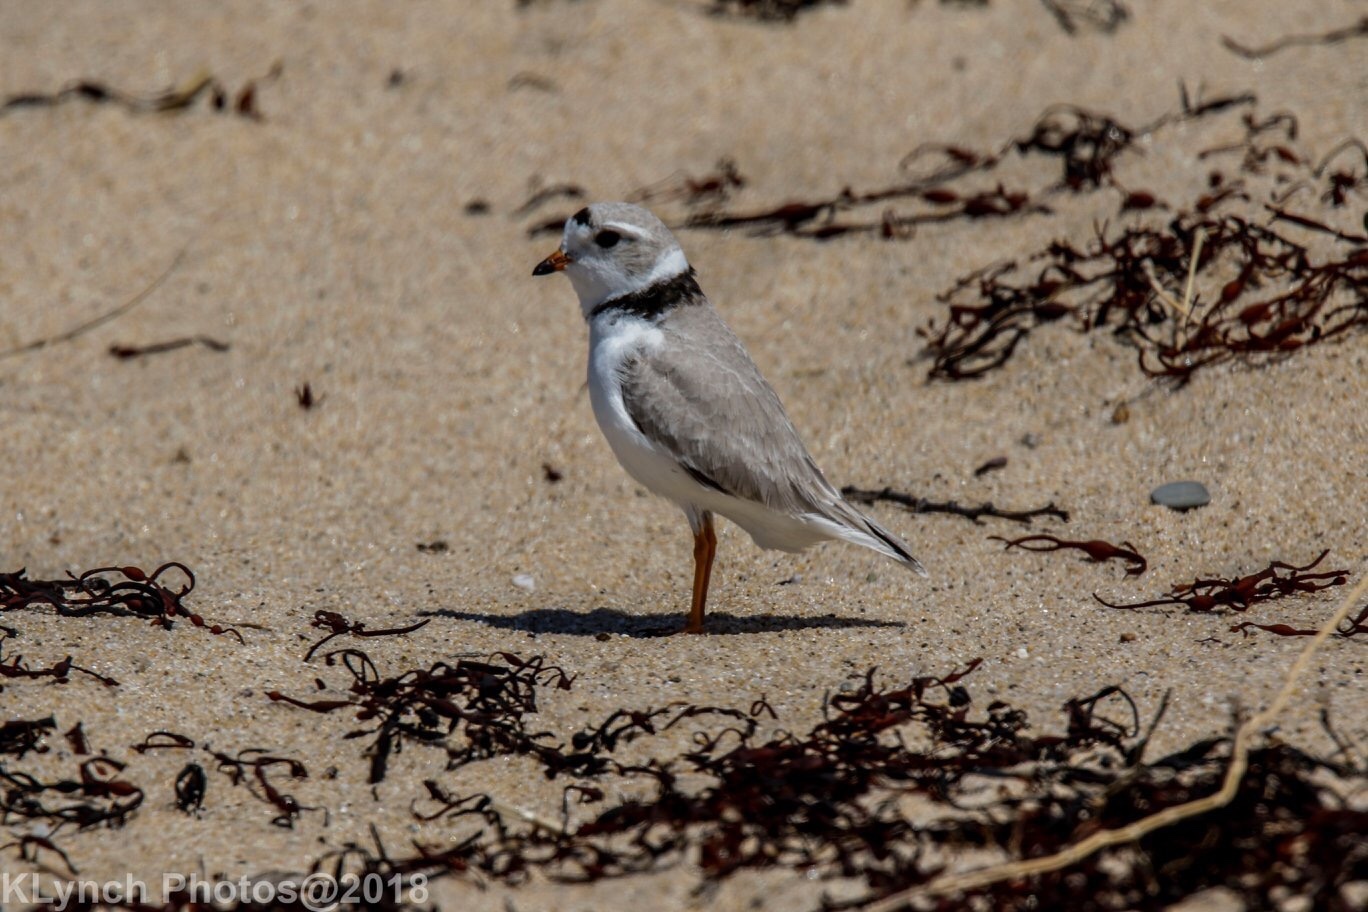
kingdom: Animalia
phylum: Chordata
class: Aves
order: Charadriiformes
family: Charadriidae
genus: Charadrius
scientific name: Charadrius melodus
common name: Piping plover
